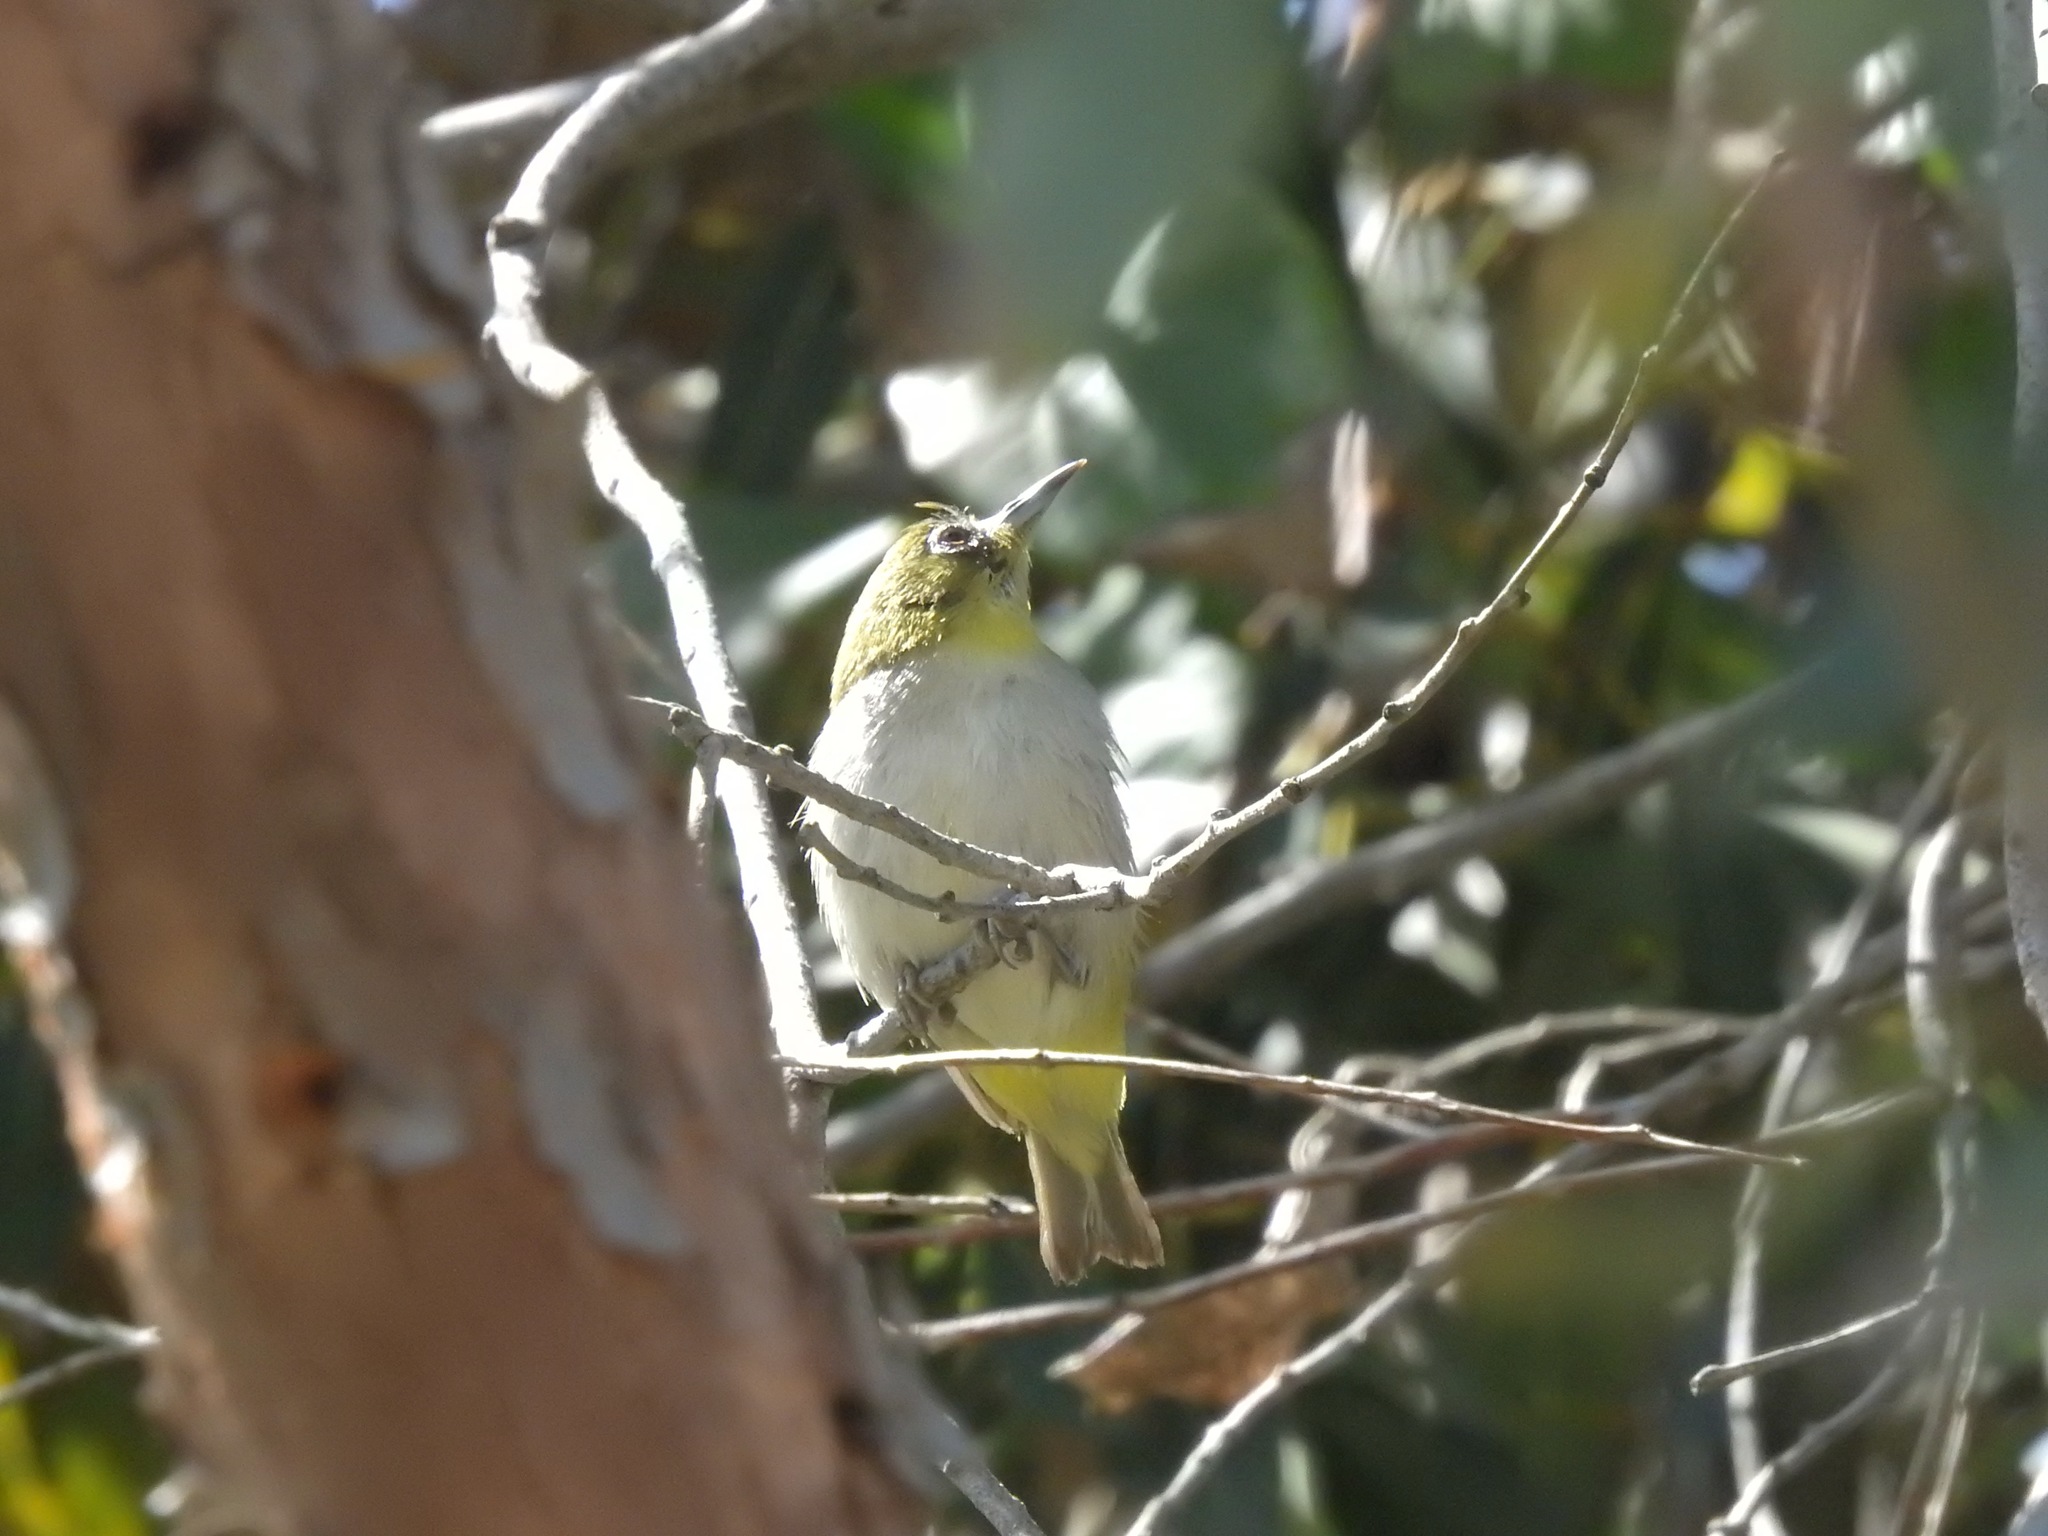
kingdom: Animalia
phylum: Chordata
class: Aves
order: Passeriformes
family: Zosteropidae
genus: Zosterops
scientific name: Zosterops simplex
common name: Swinhoe's white-eye
